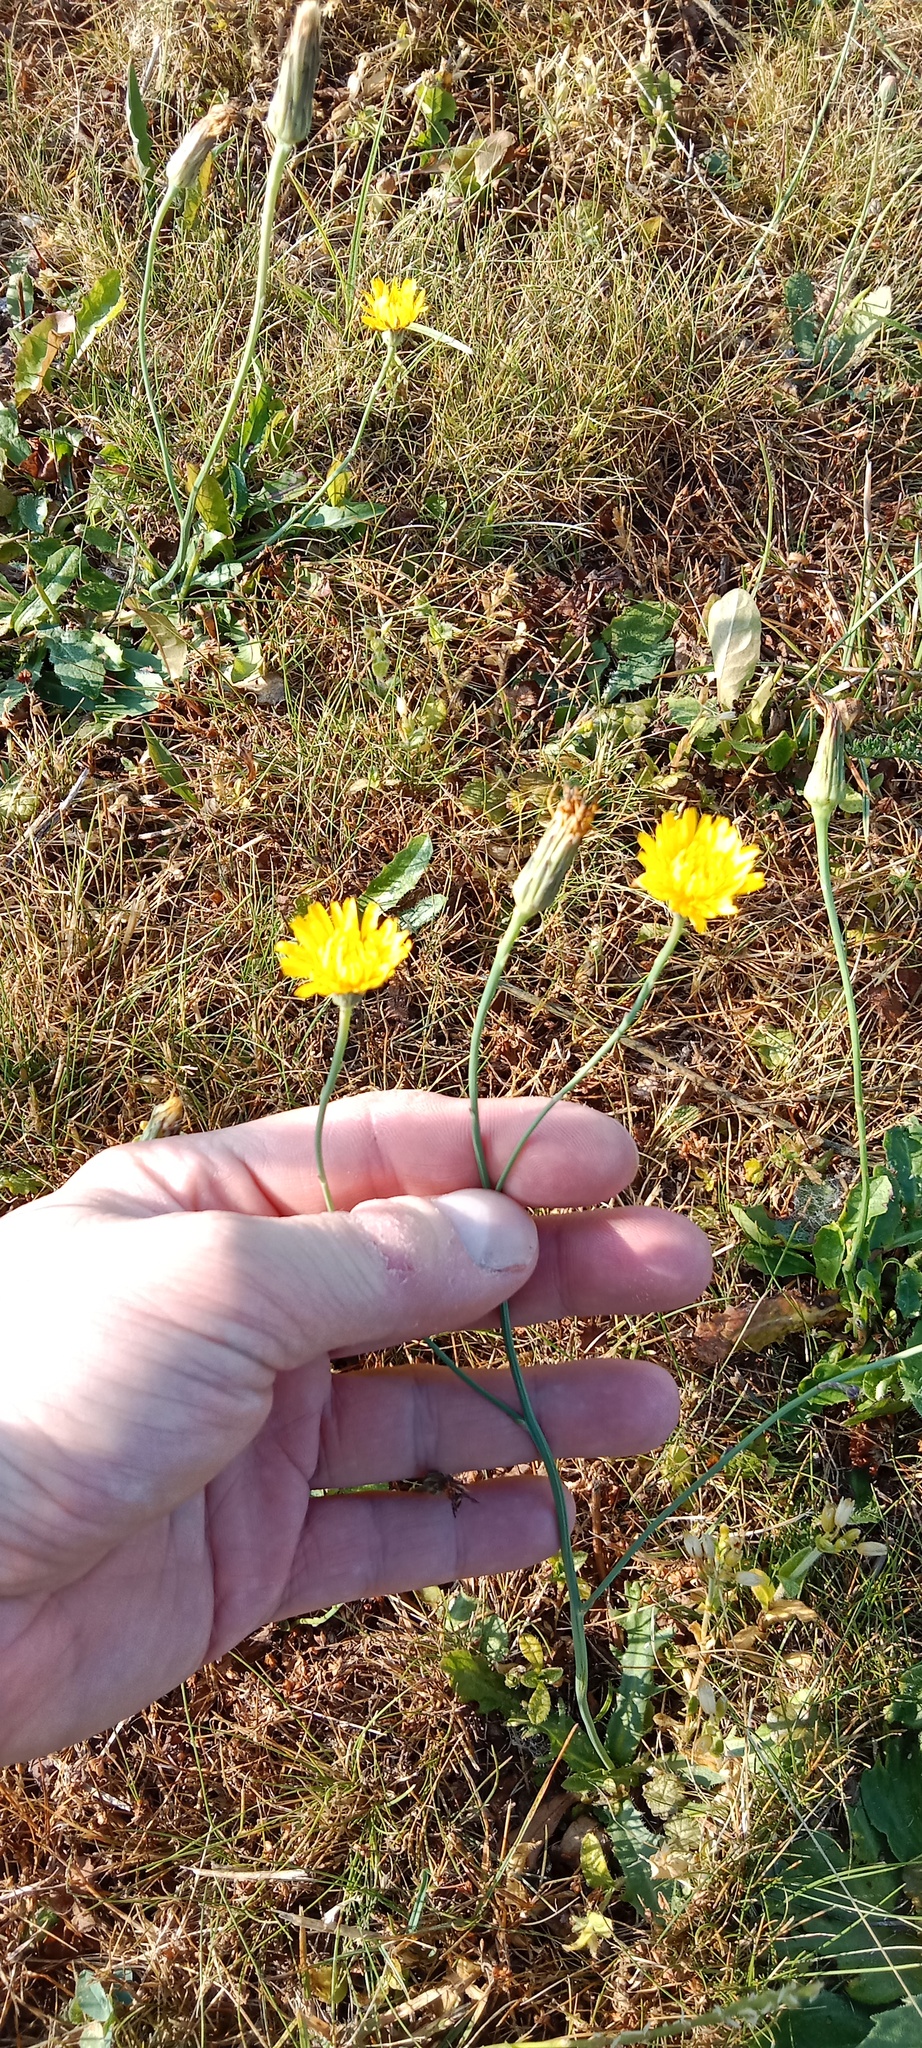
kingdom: Plantae
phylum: Tracheophyta
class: Magnoliopsida
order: Asterales
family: Asteraceae
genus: Hypochaeris
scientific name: Hypochaeris radicata
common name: Flatweed
